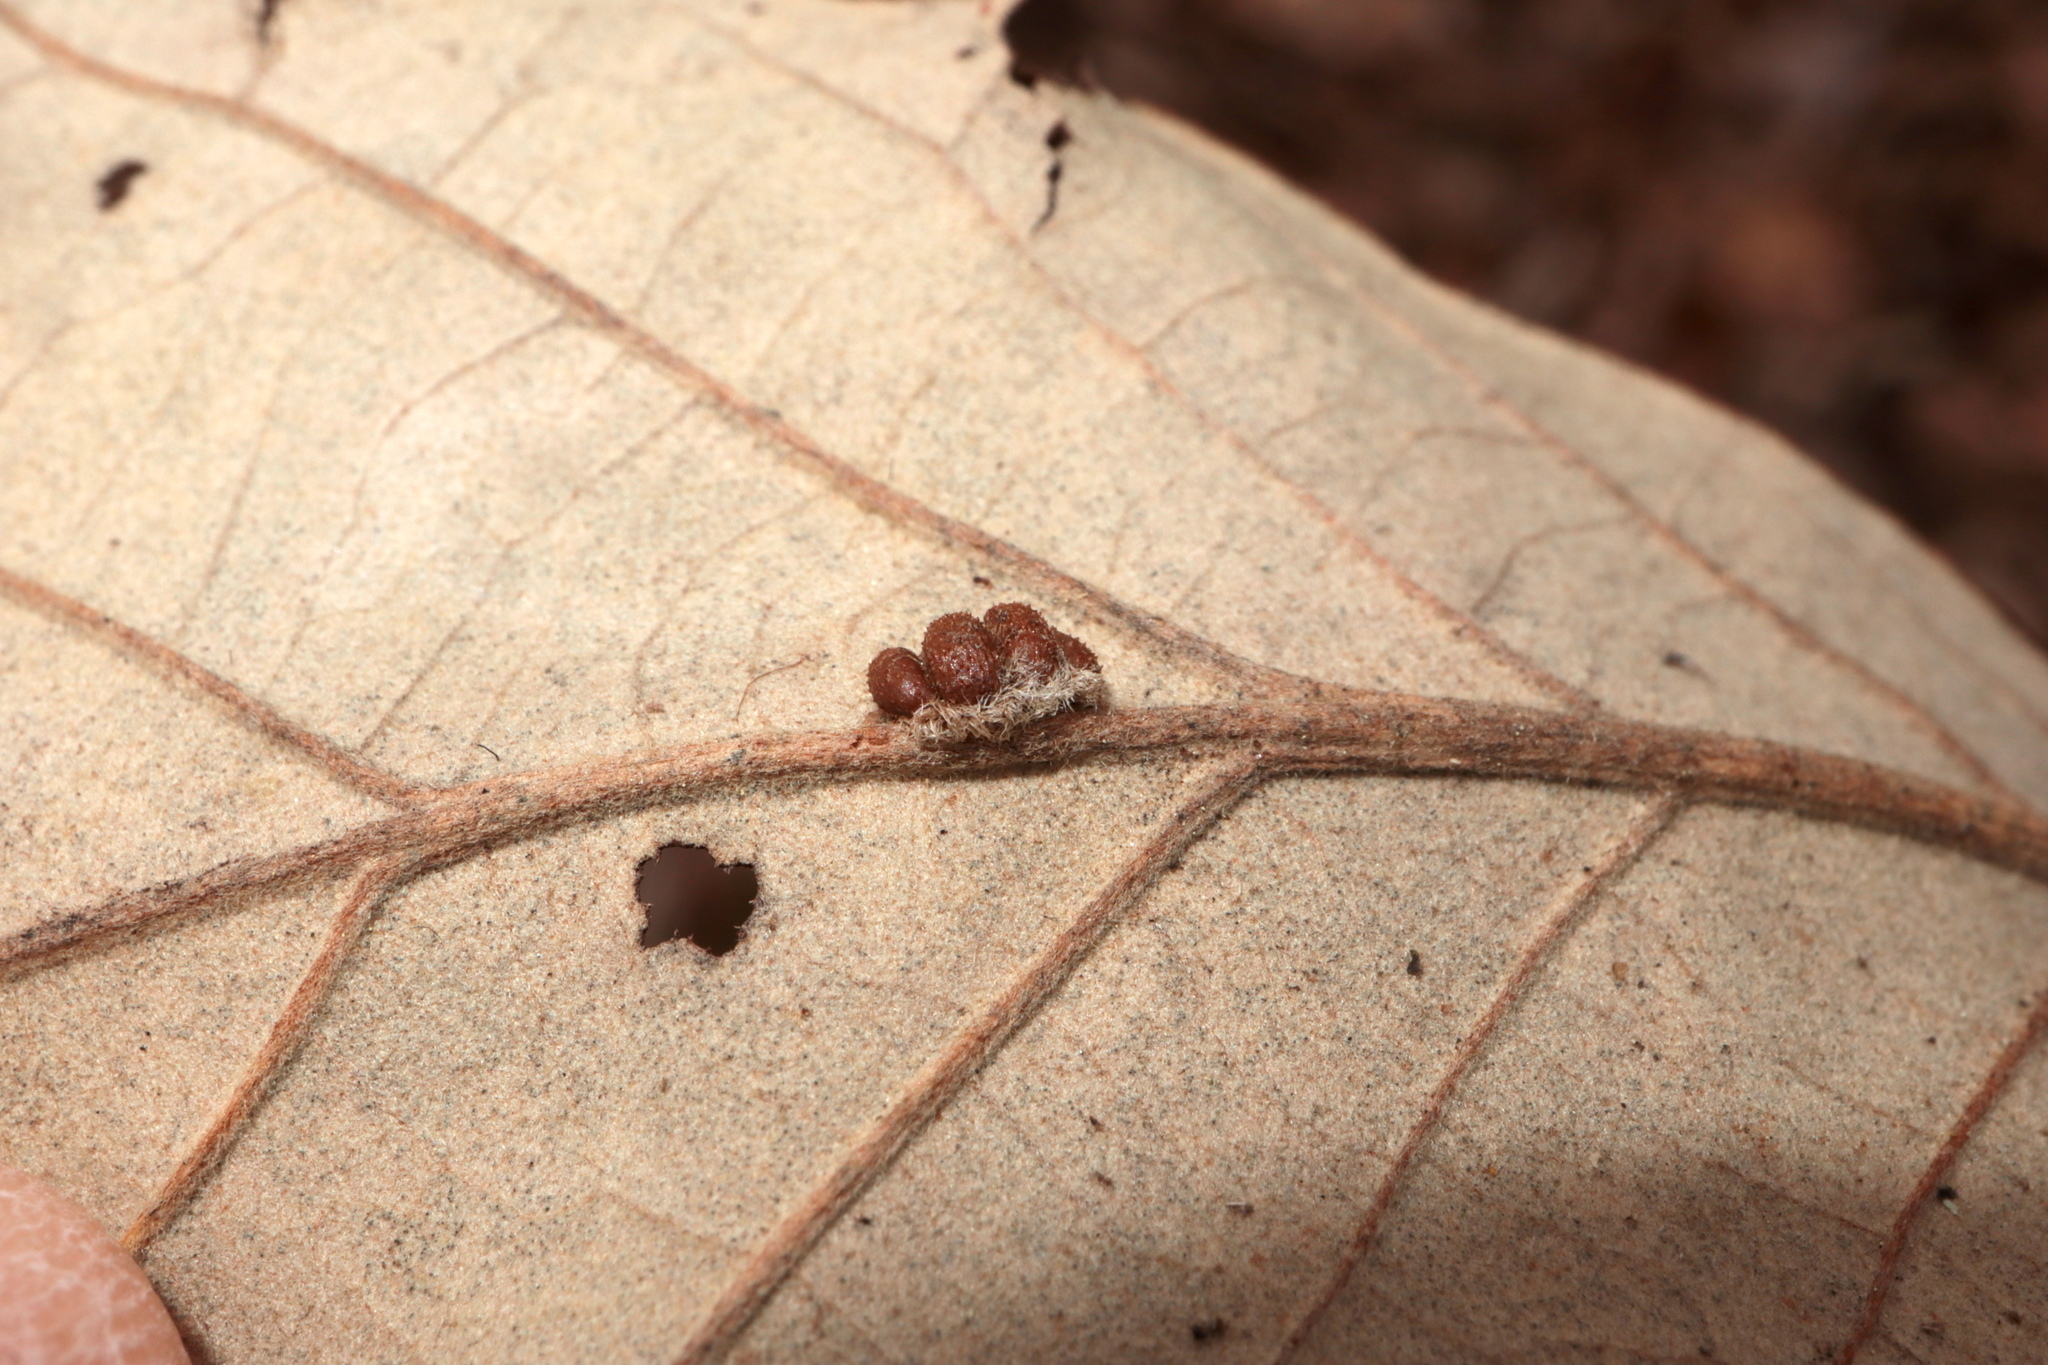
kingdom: Animalia
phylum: Arthropoda
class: Insecta
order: Hymenoptera
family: Cynipidae
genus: Andricus
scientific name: Andricus Druon ignotum
